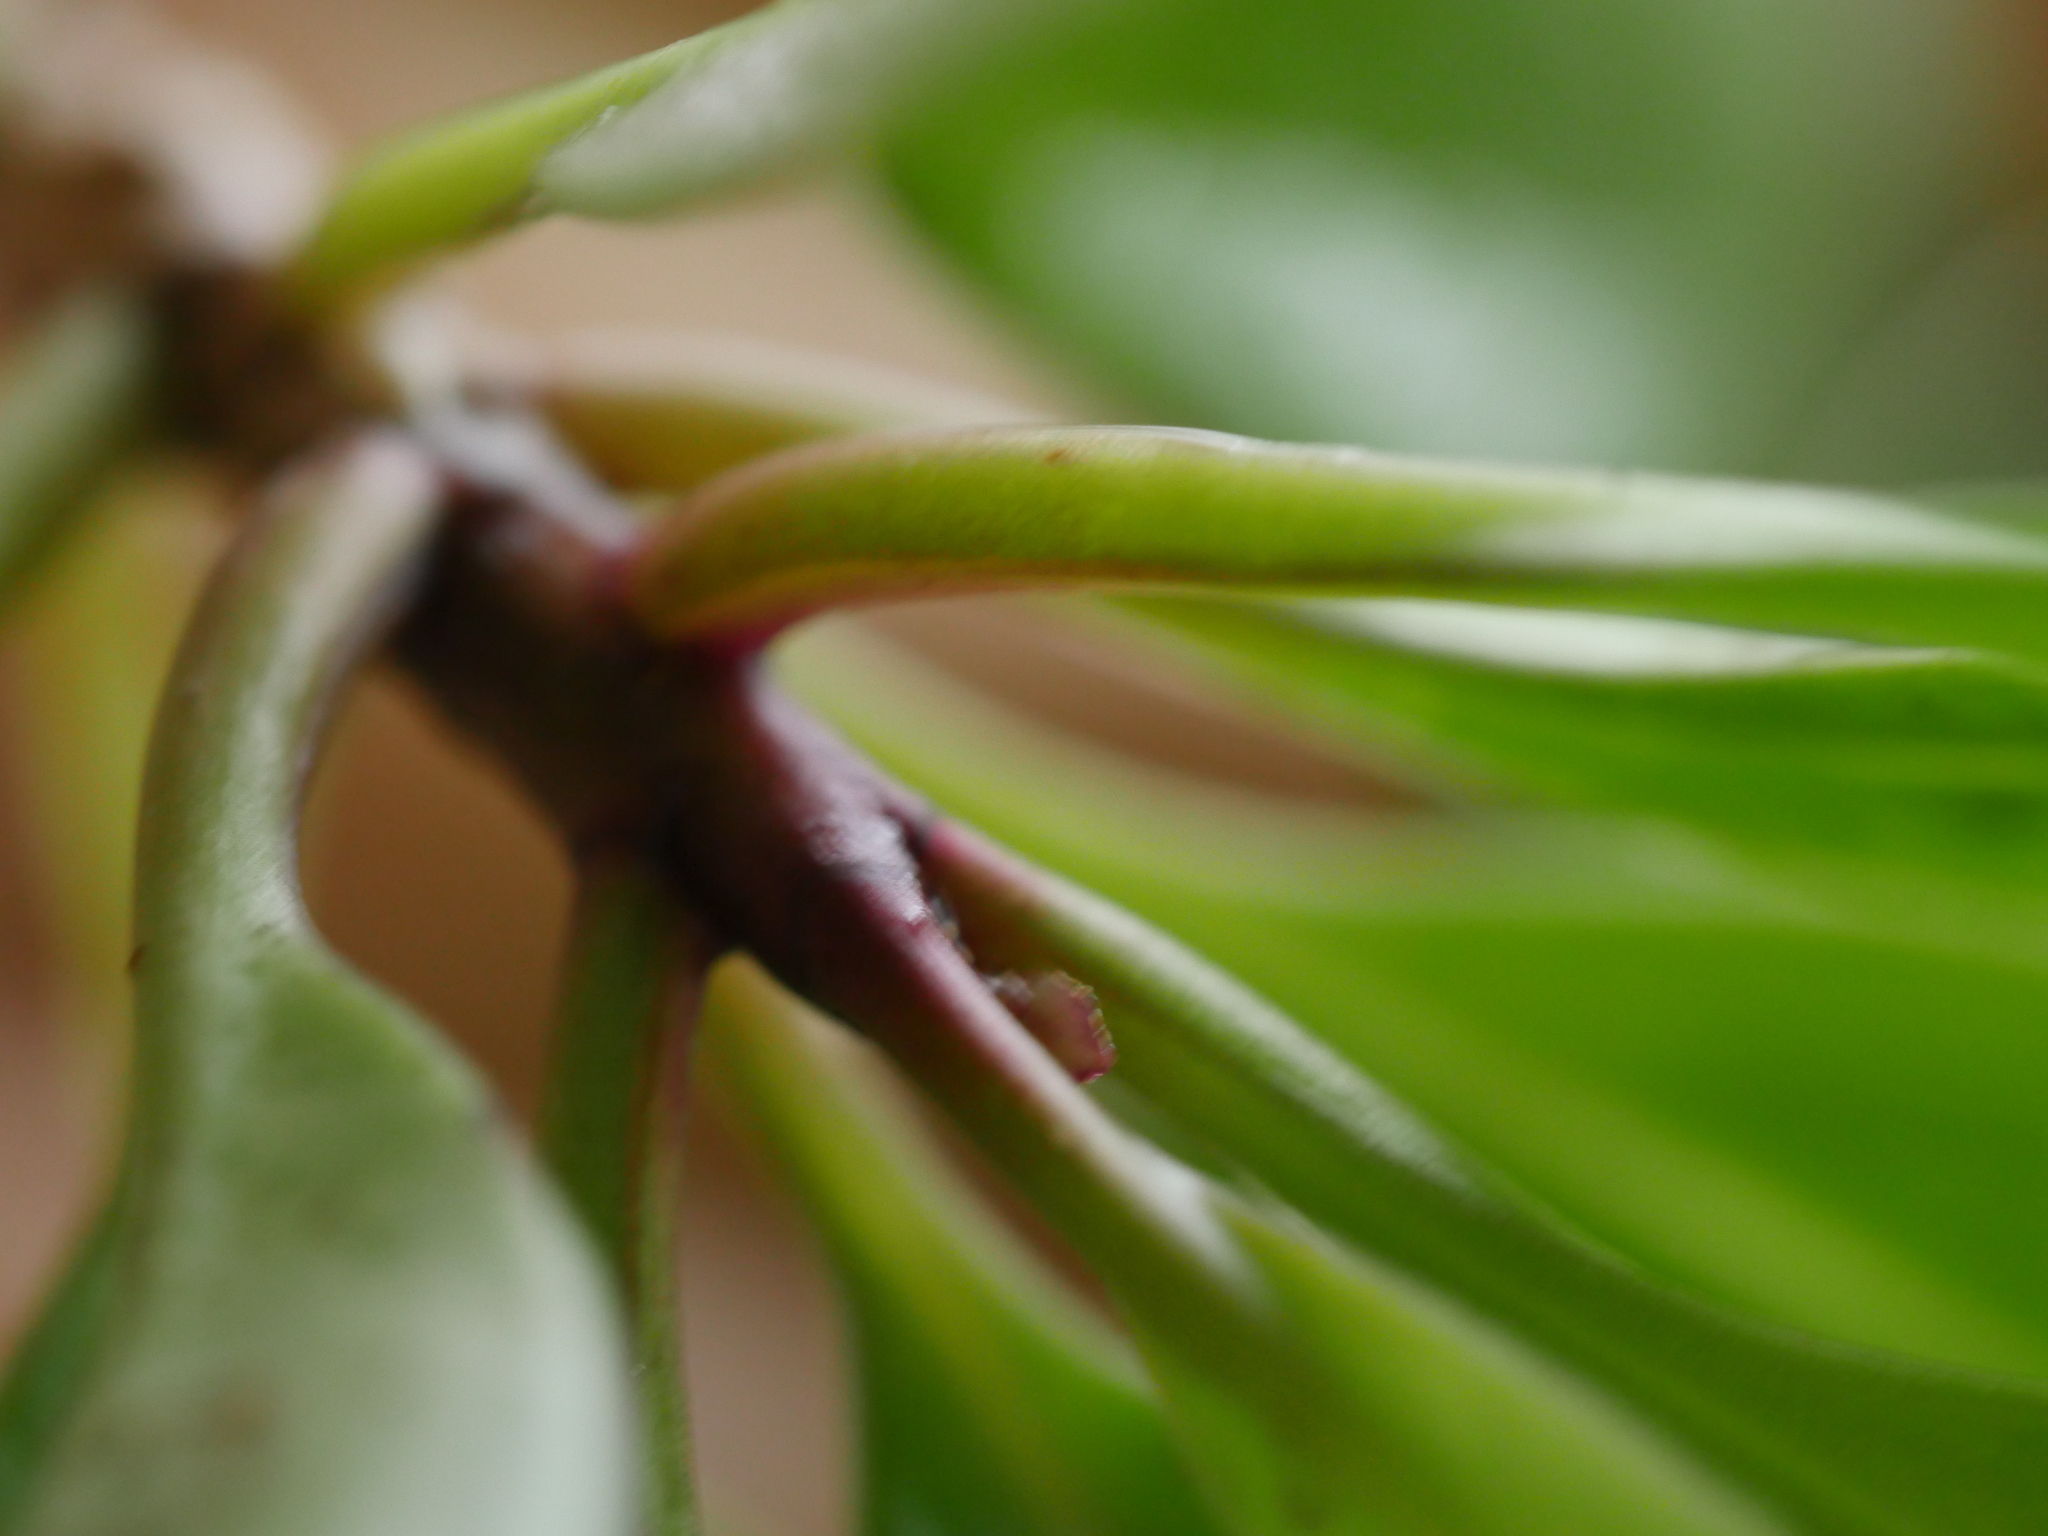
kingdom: Plantae
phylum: Tracheophyta
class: Magnoliopsida
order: Asterales
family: Asteraceae
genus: Brachyglottis
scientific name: Brachyglottis kirkii
